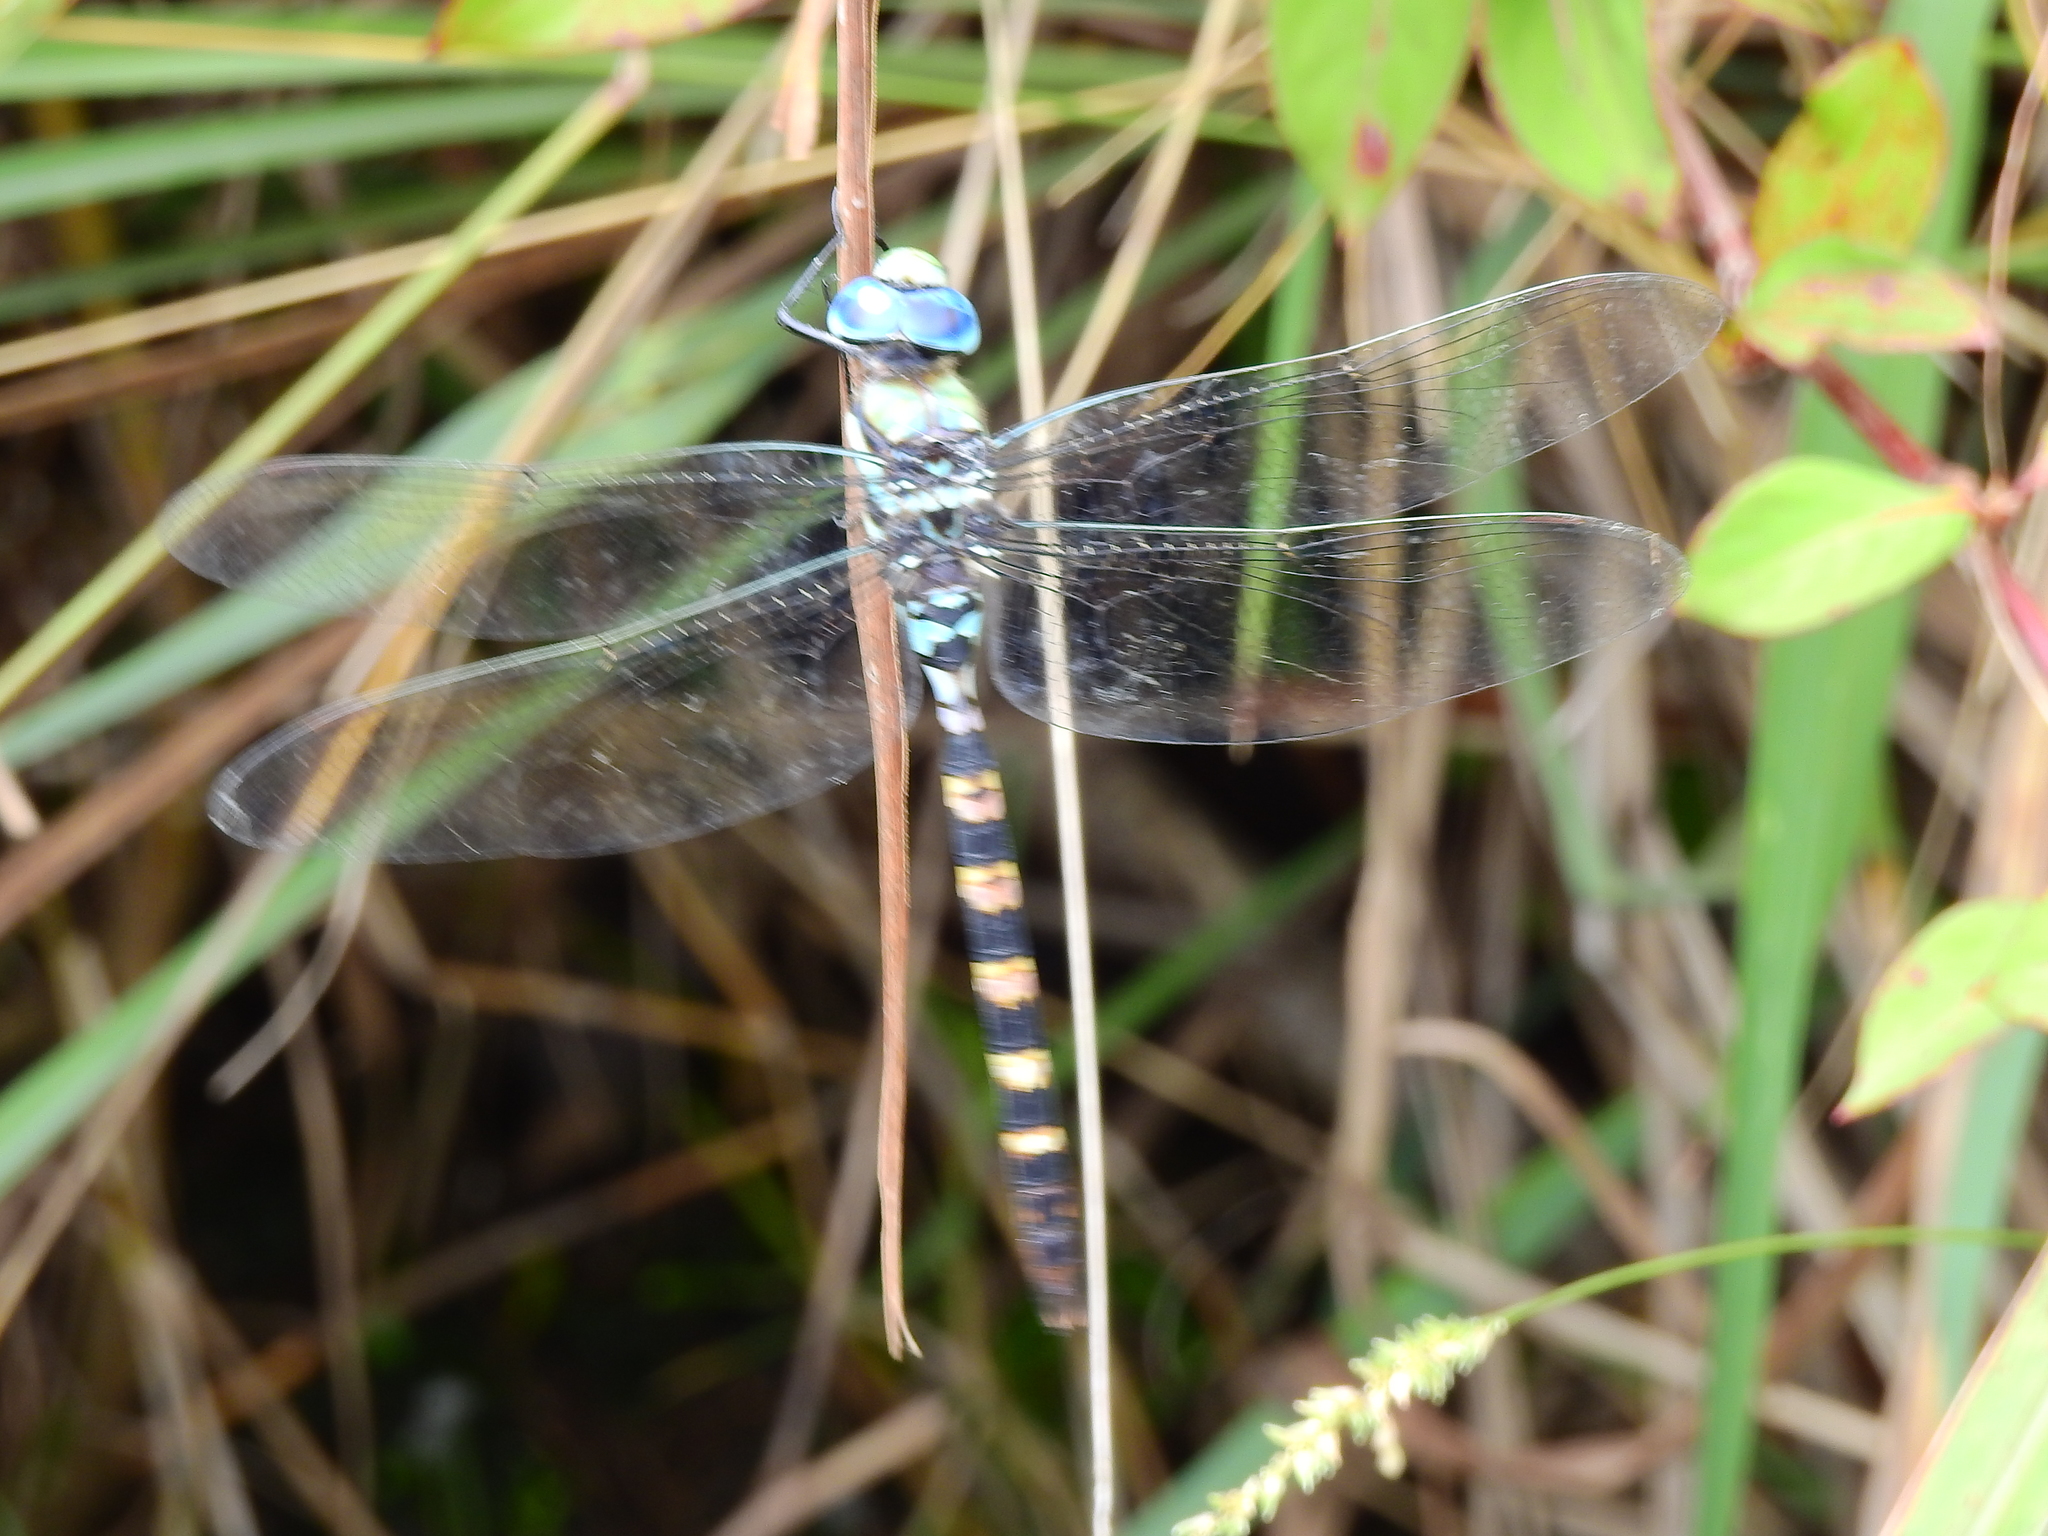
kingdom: Animalia
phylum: Arthropoda
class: Insecta
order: Odonata
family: Aeshnidae
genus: Anax
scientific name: Anax immaculifrons
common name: Magnificent emperor
